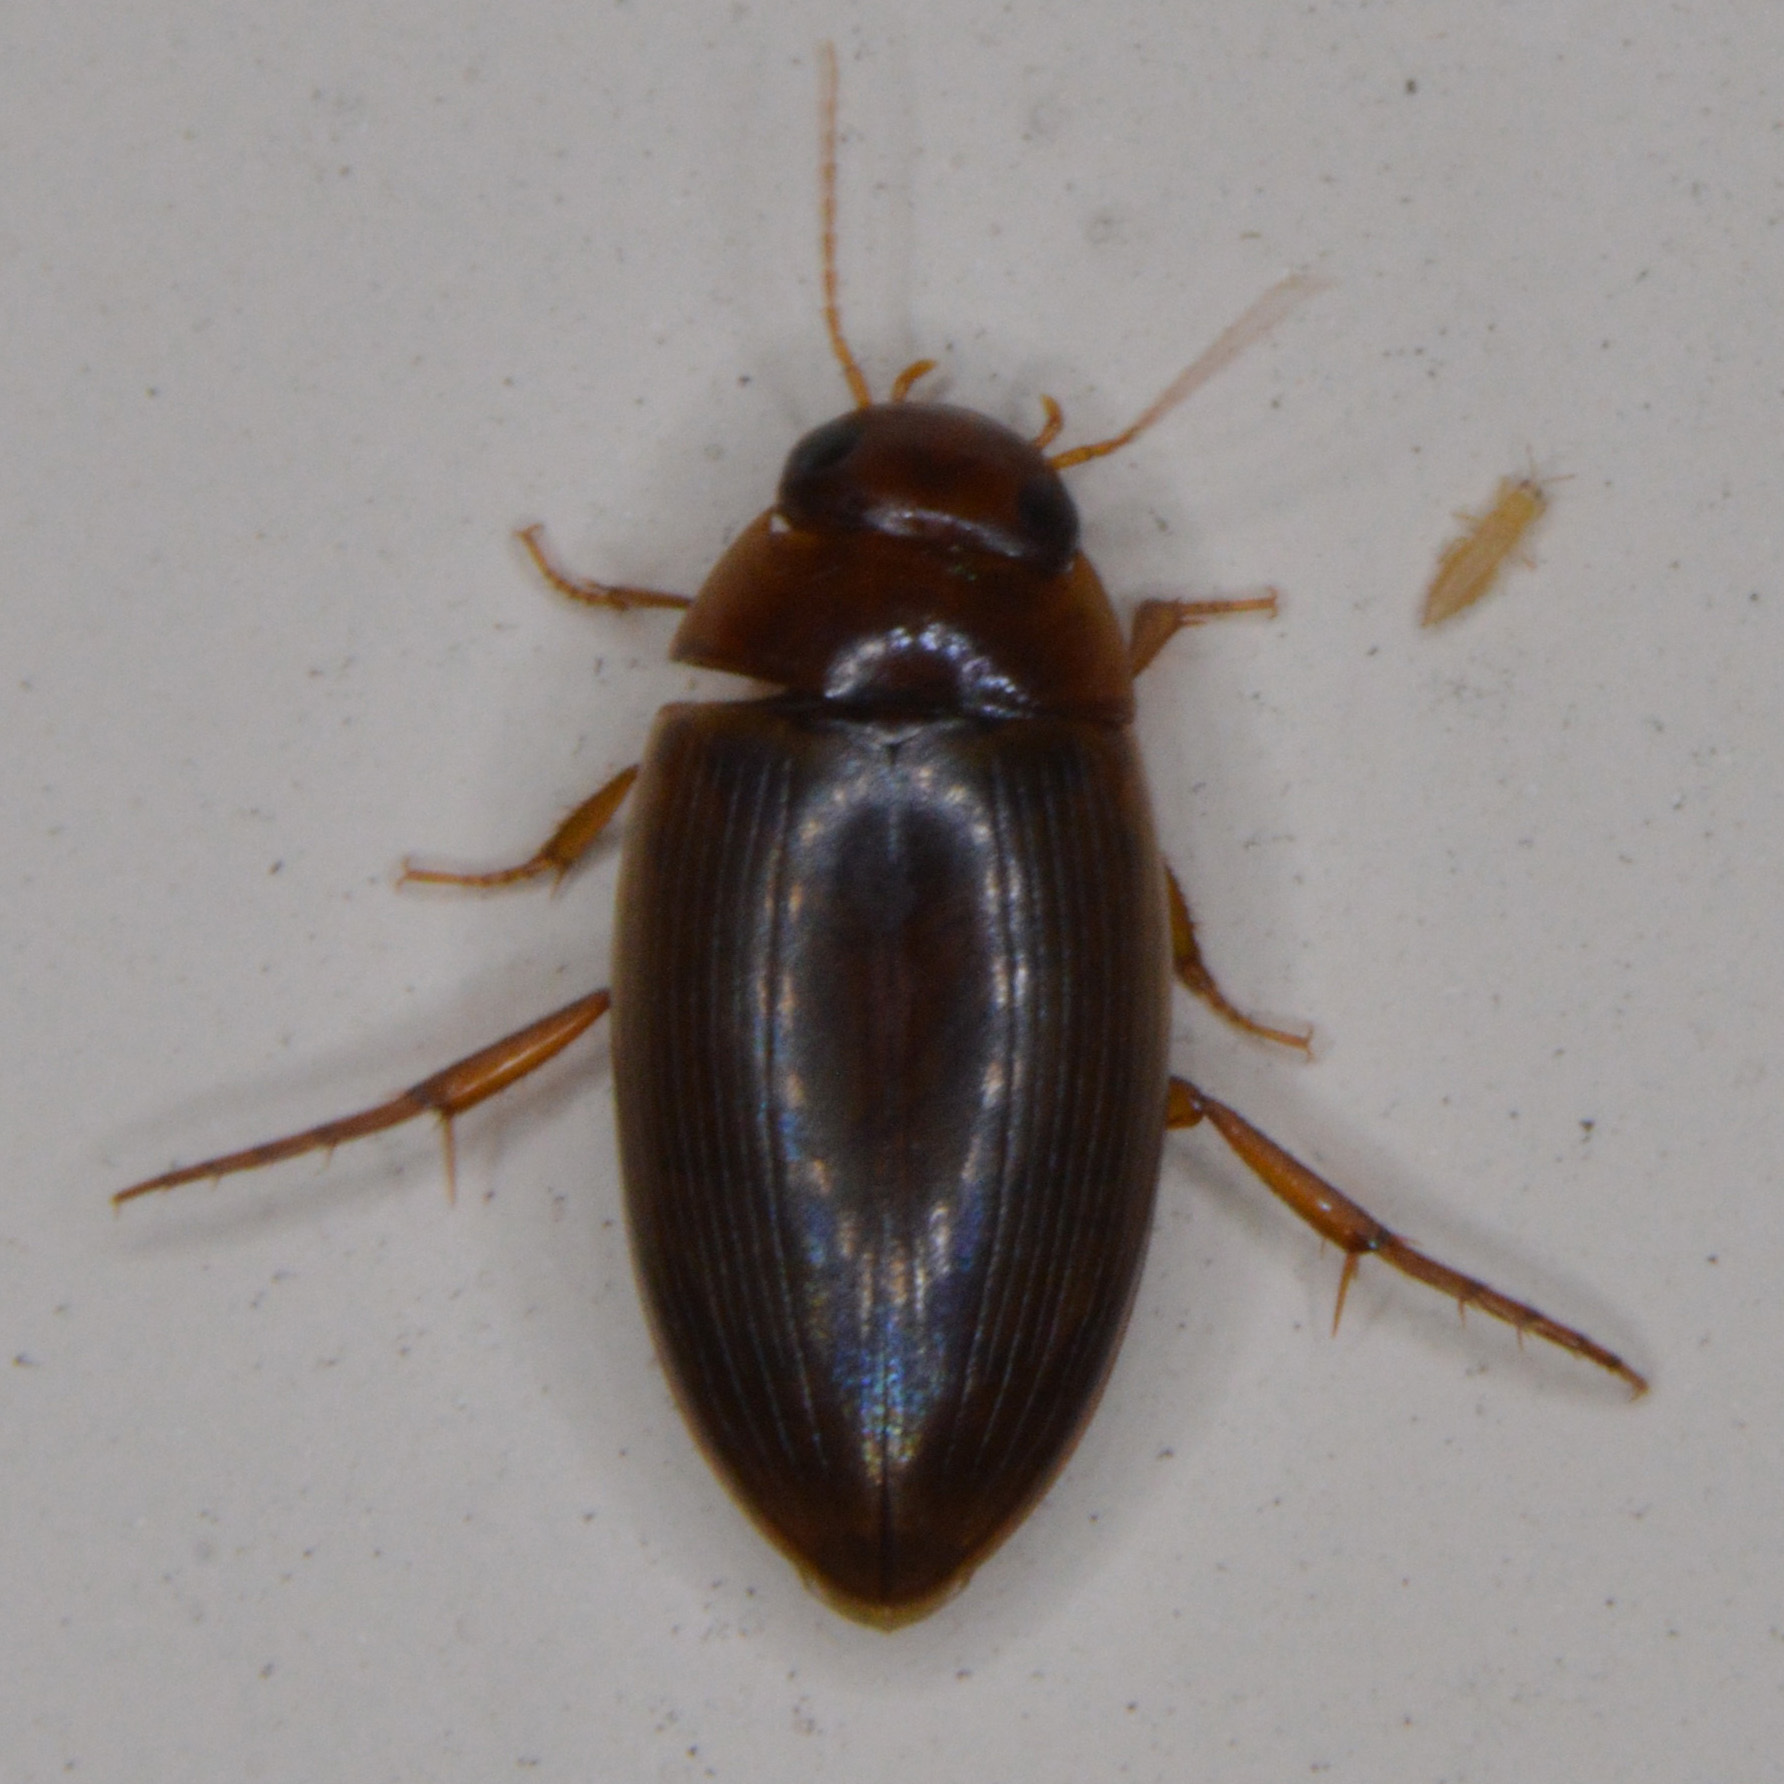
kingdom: Animalia
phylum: Arthropoda
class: Insecta
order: Coleoptera
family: Dytiscidae
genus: Copelatus
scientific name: Copelatus chevrolati
